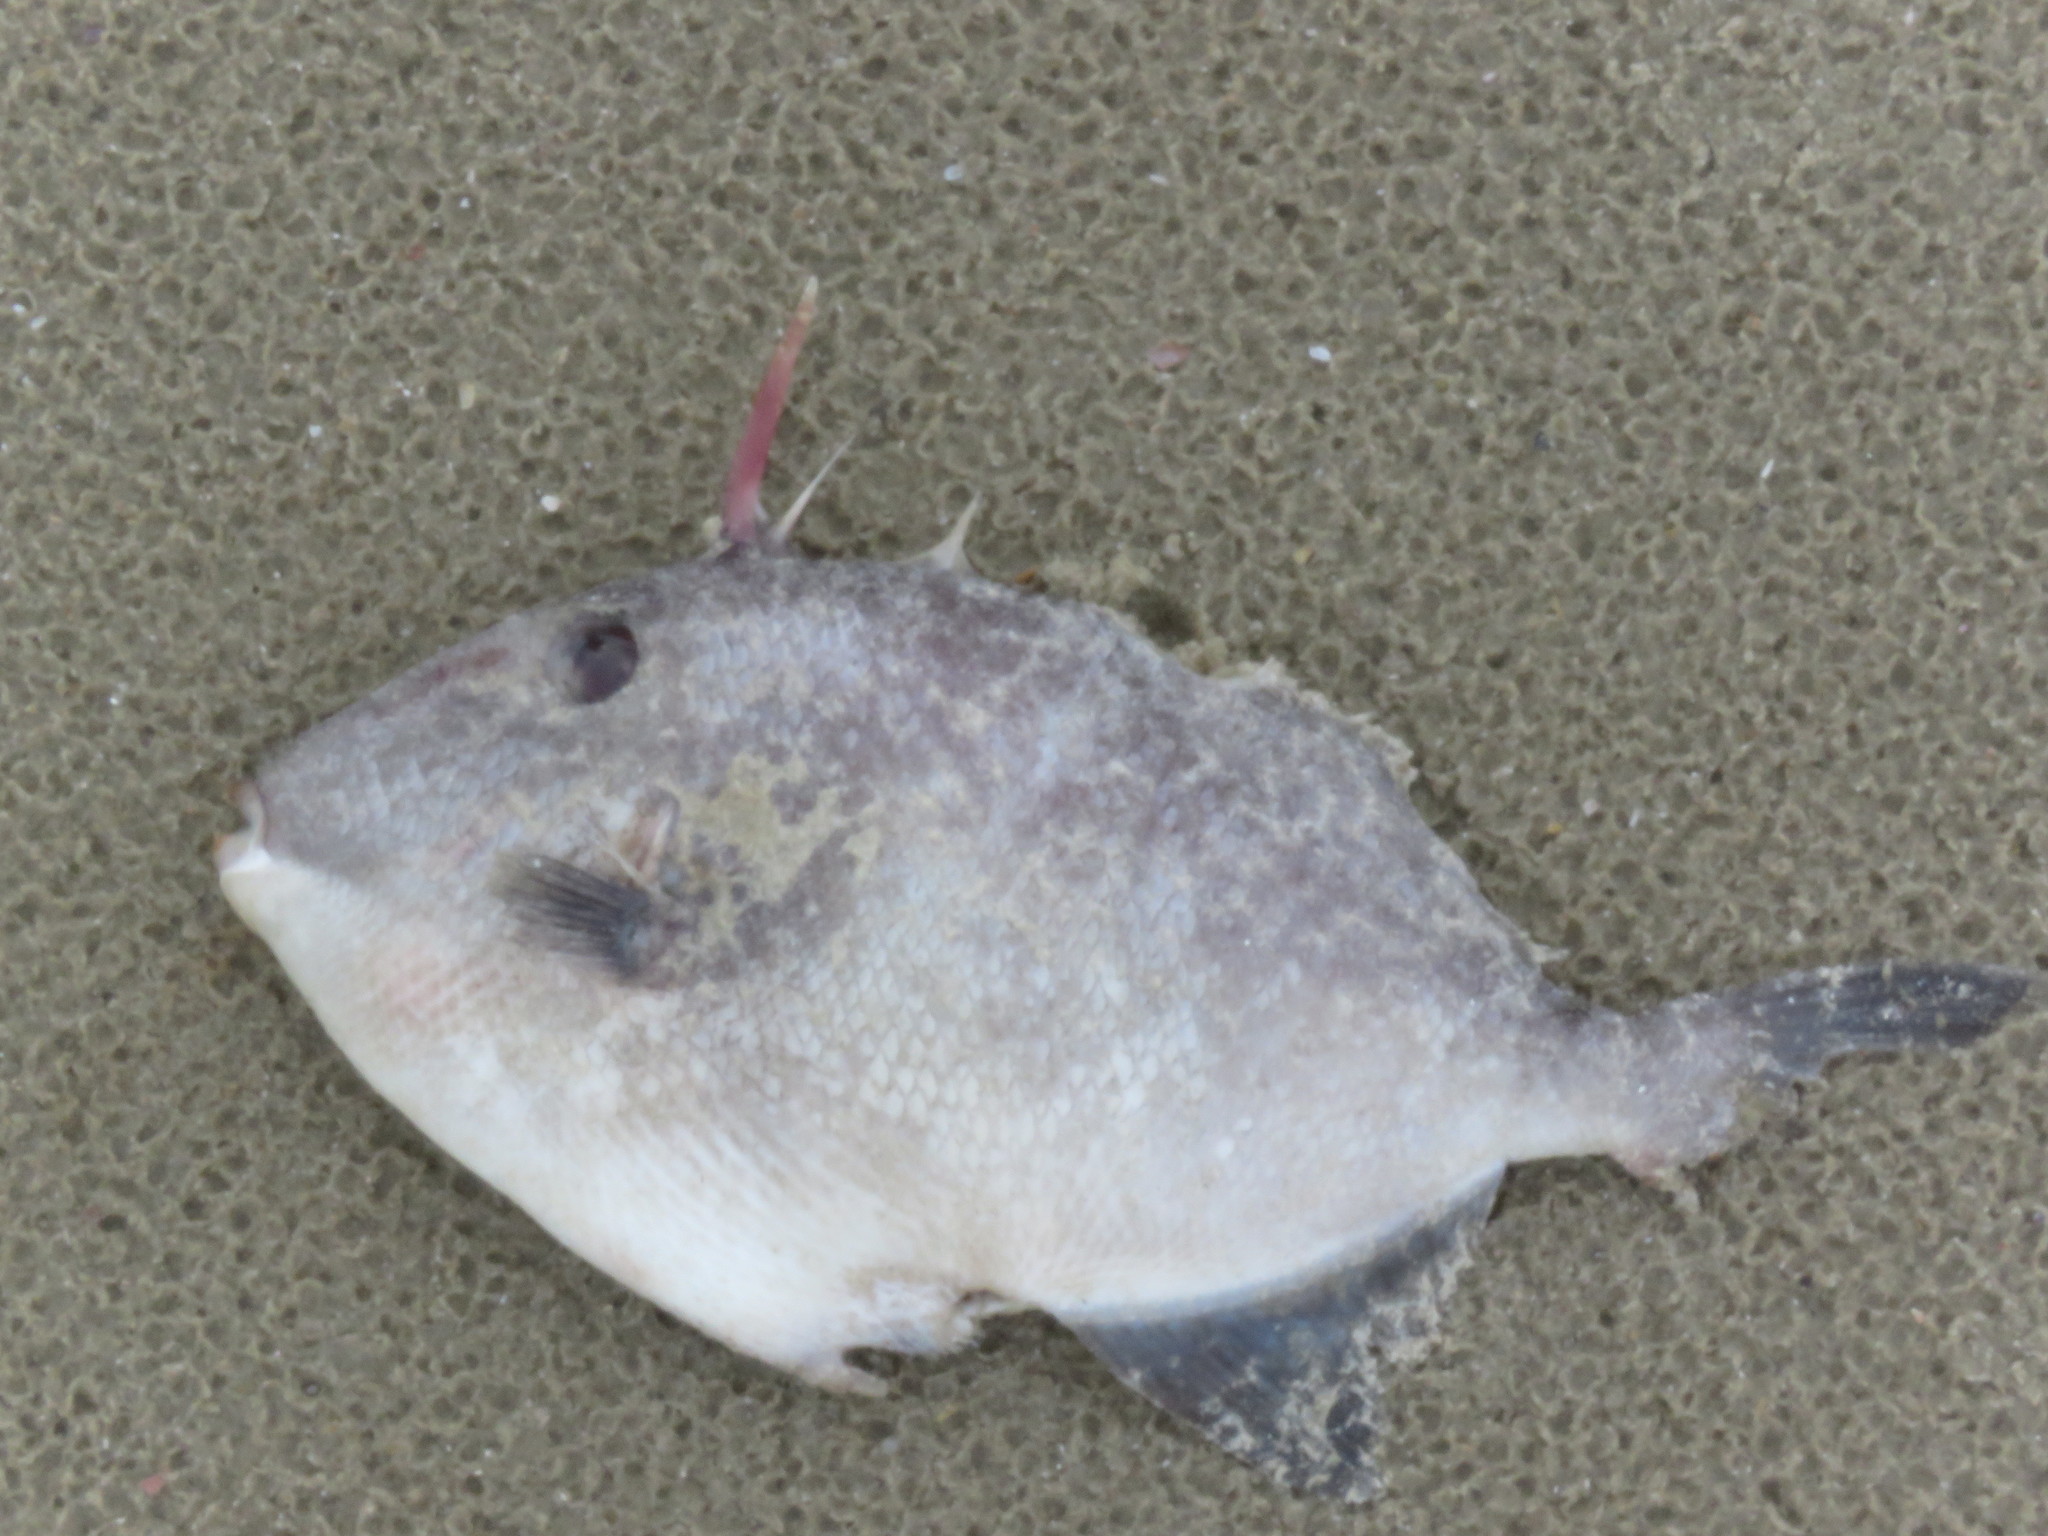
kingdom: Animalia
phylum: Chordata
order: Tetraodontiformes
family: Balistidae
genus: Balistes
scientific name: Balistes capriscus
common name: Grey triggerfish
